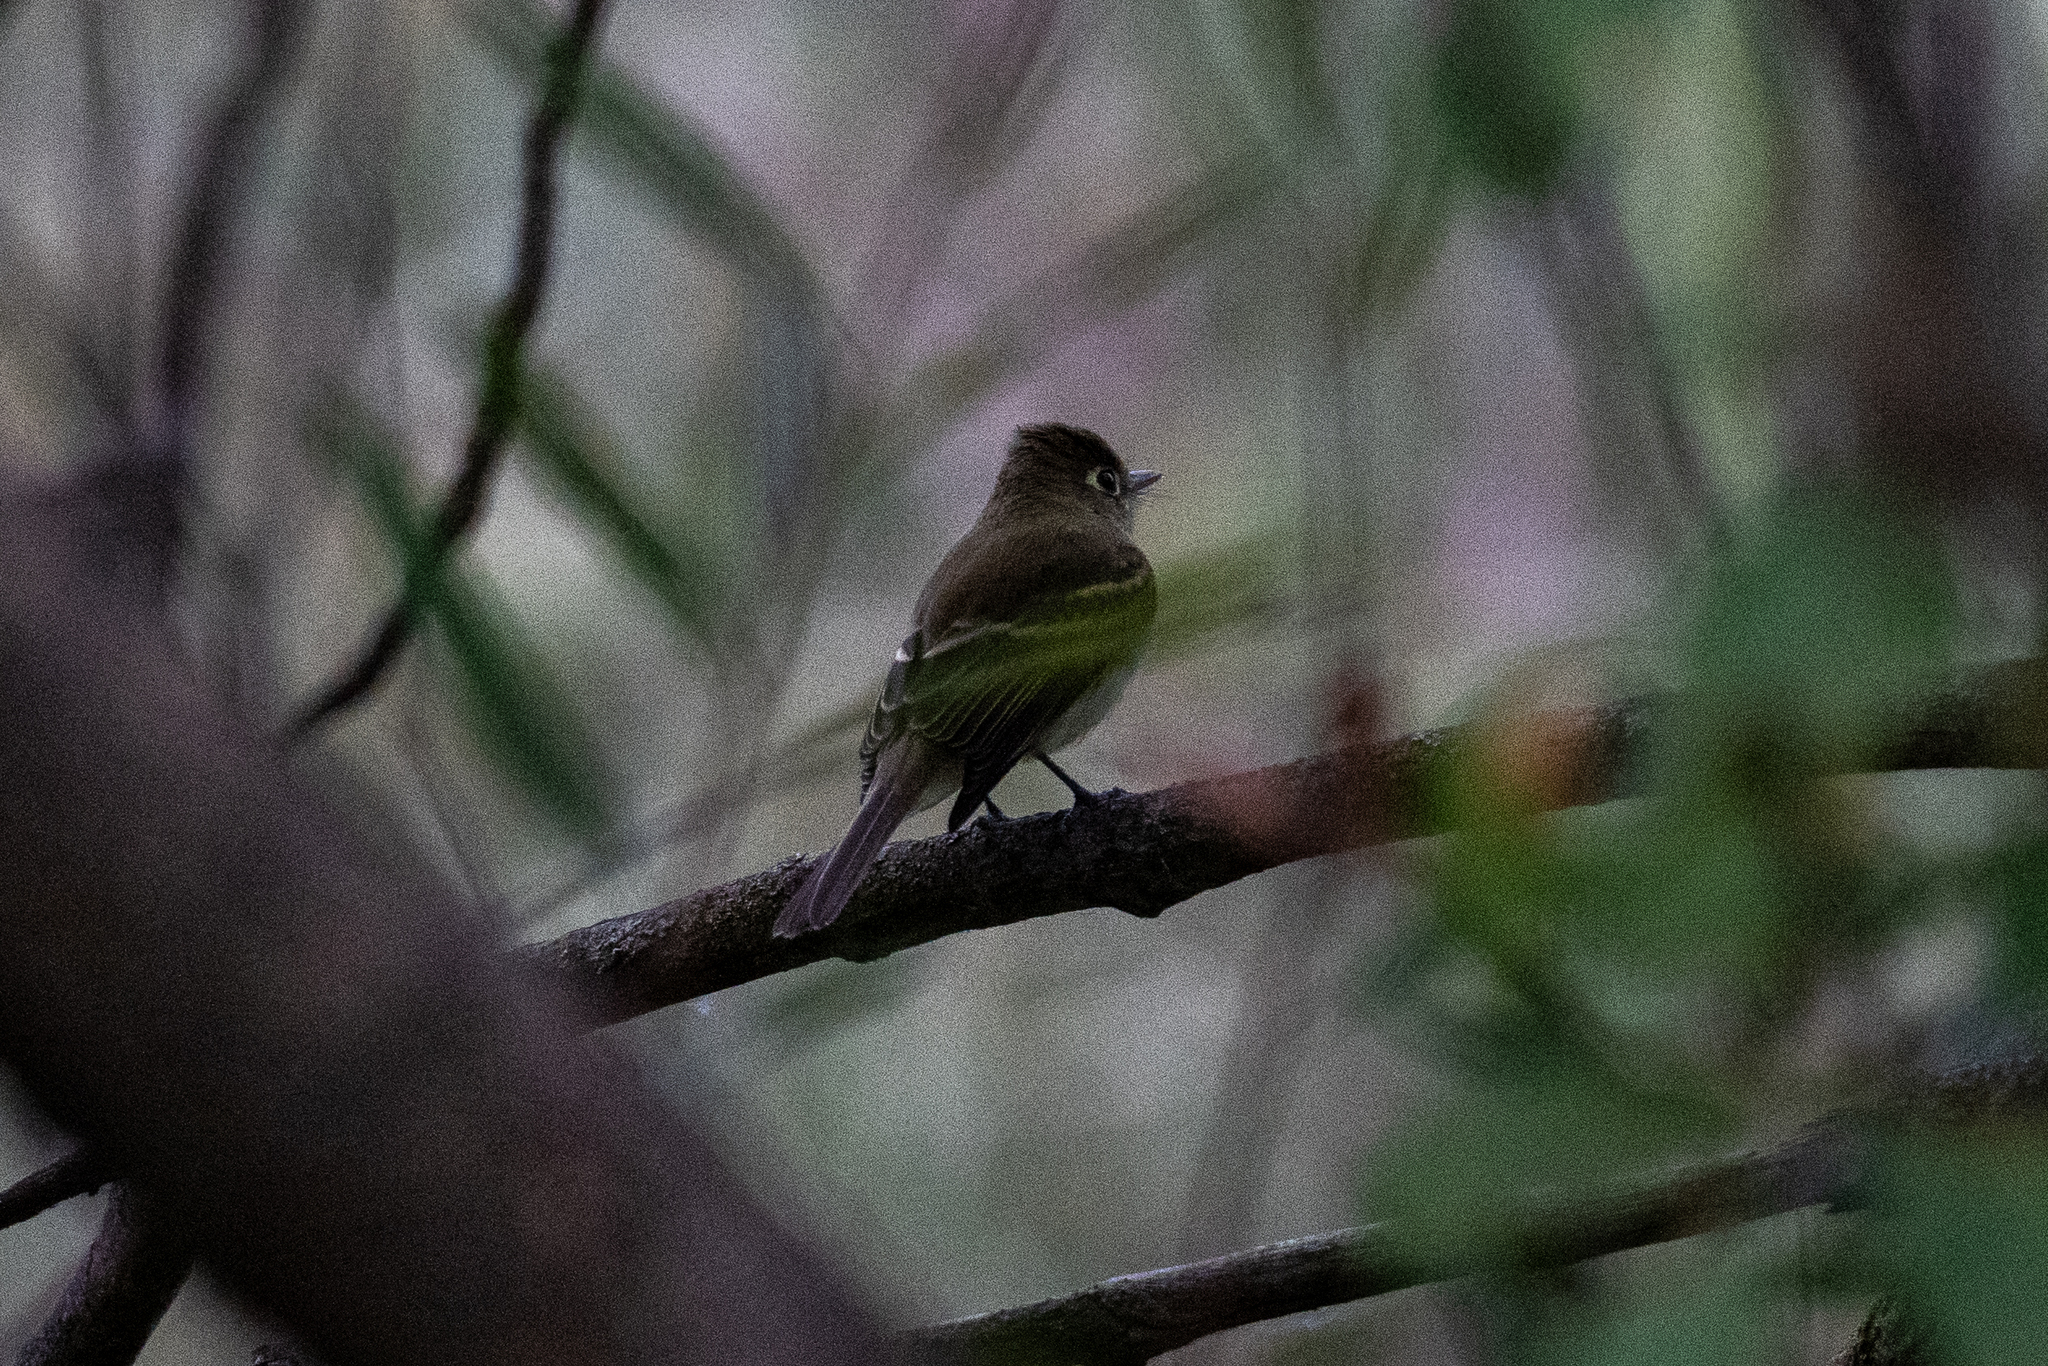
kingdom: Animalia
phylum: Chordata
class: Aves
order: Passeriformes
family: Tyrannidae
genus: Empidonax
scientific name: Empidonax difficilis
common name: Pacific-slope flycatcher
